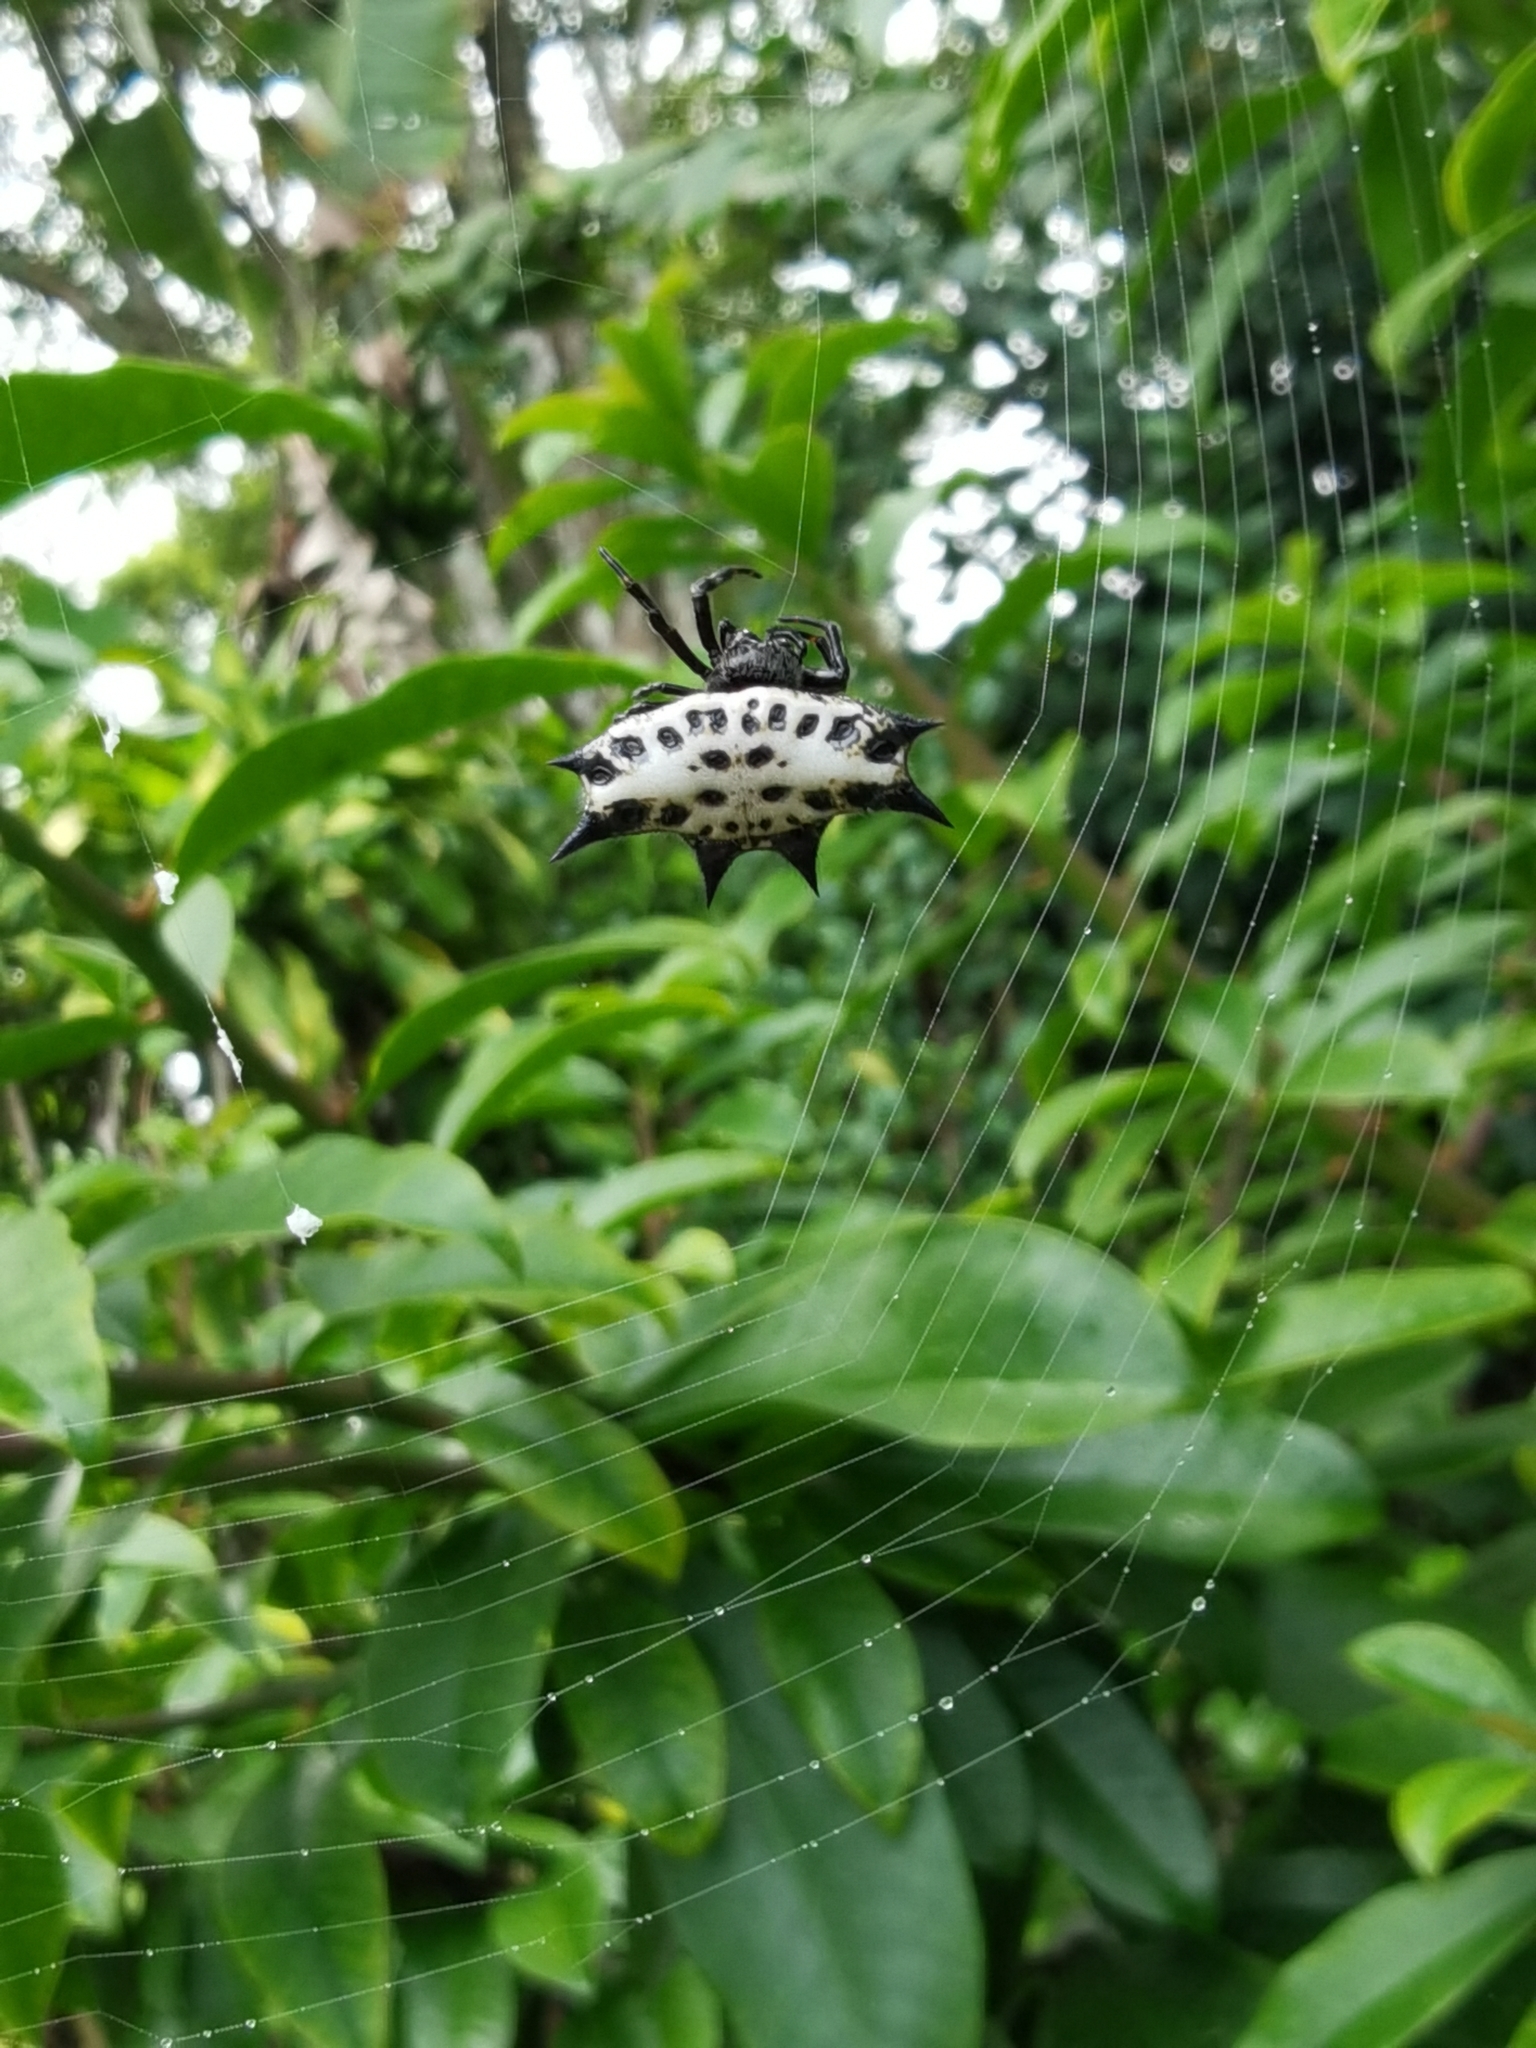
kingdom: Animalia
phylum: Arthropoda
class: Arachnida
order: Araneae
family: Araneidae
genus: Gasteracantha
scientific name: Gasteracantha cancriformis
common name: Orb weavers
